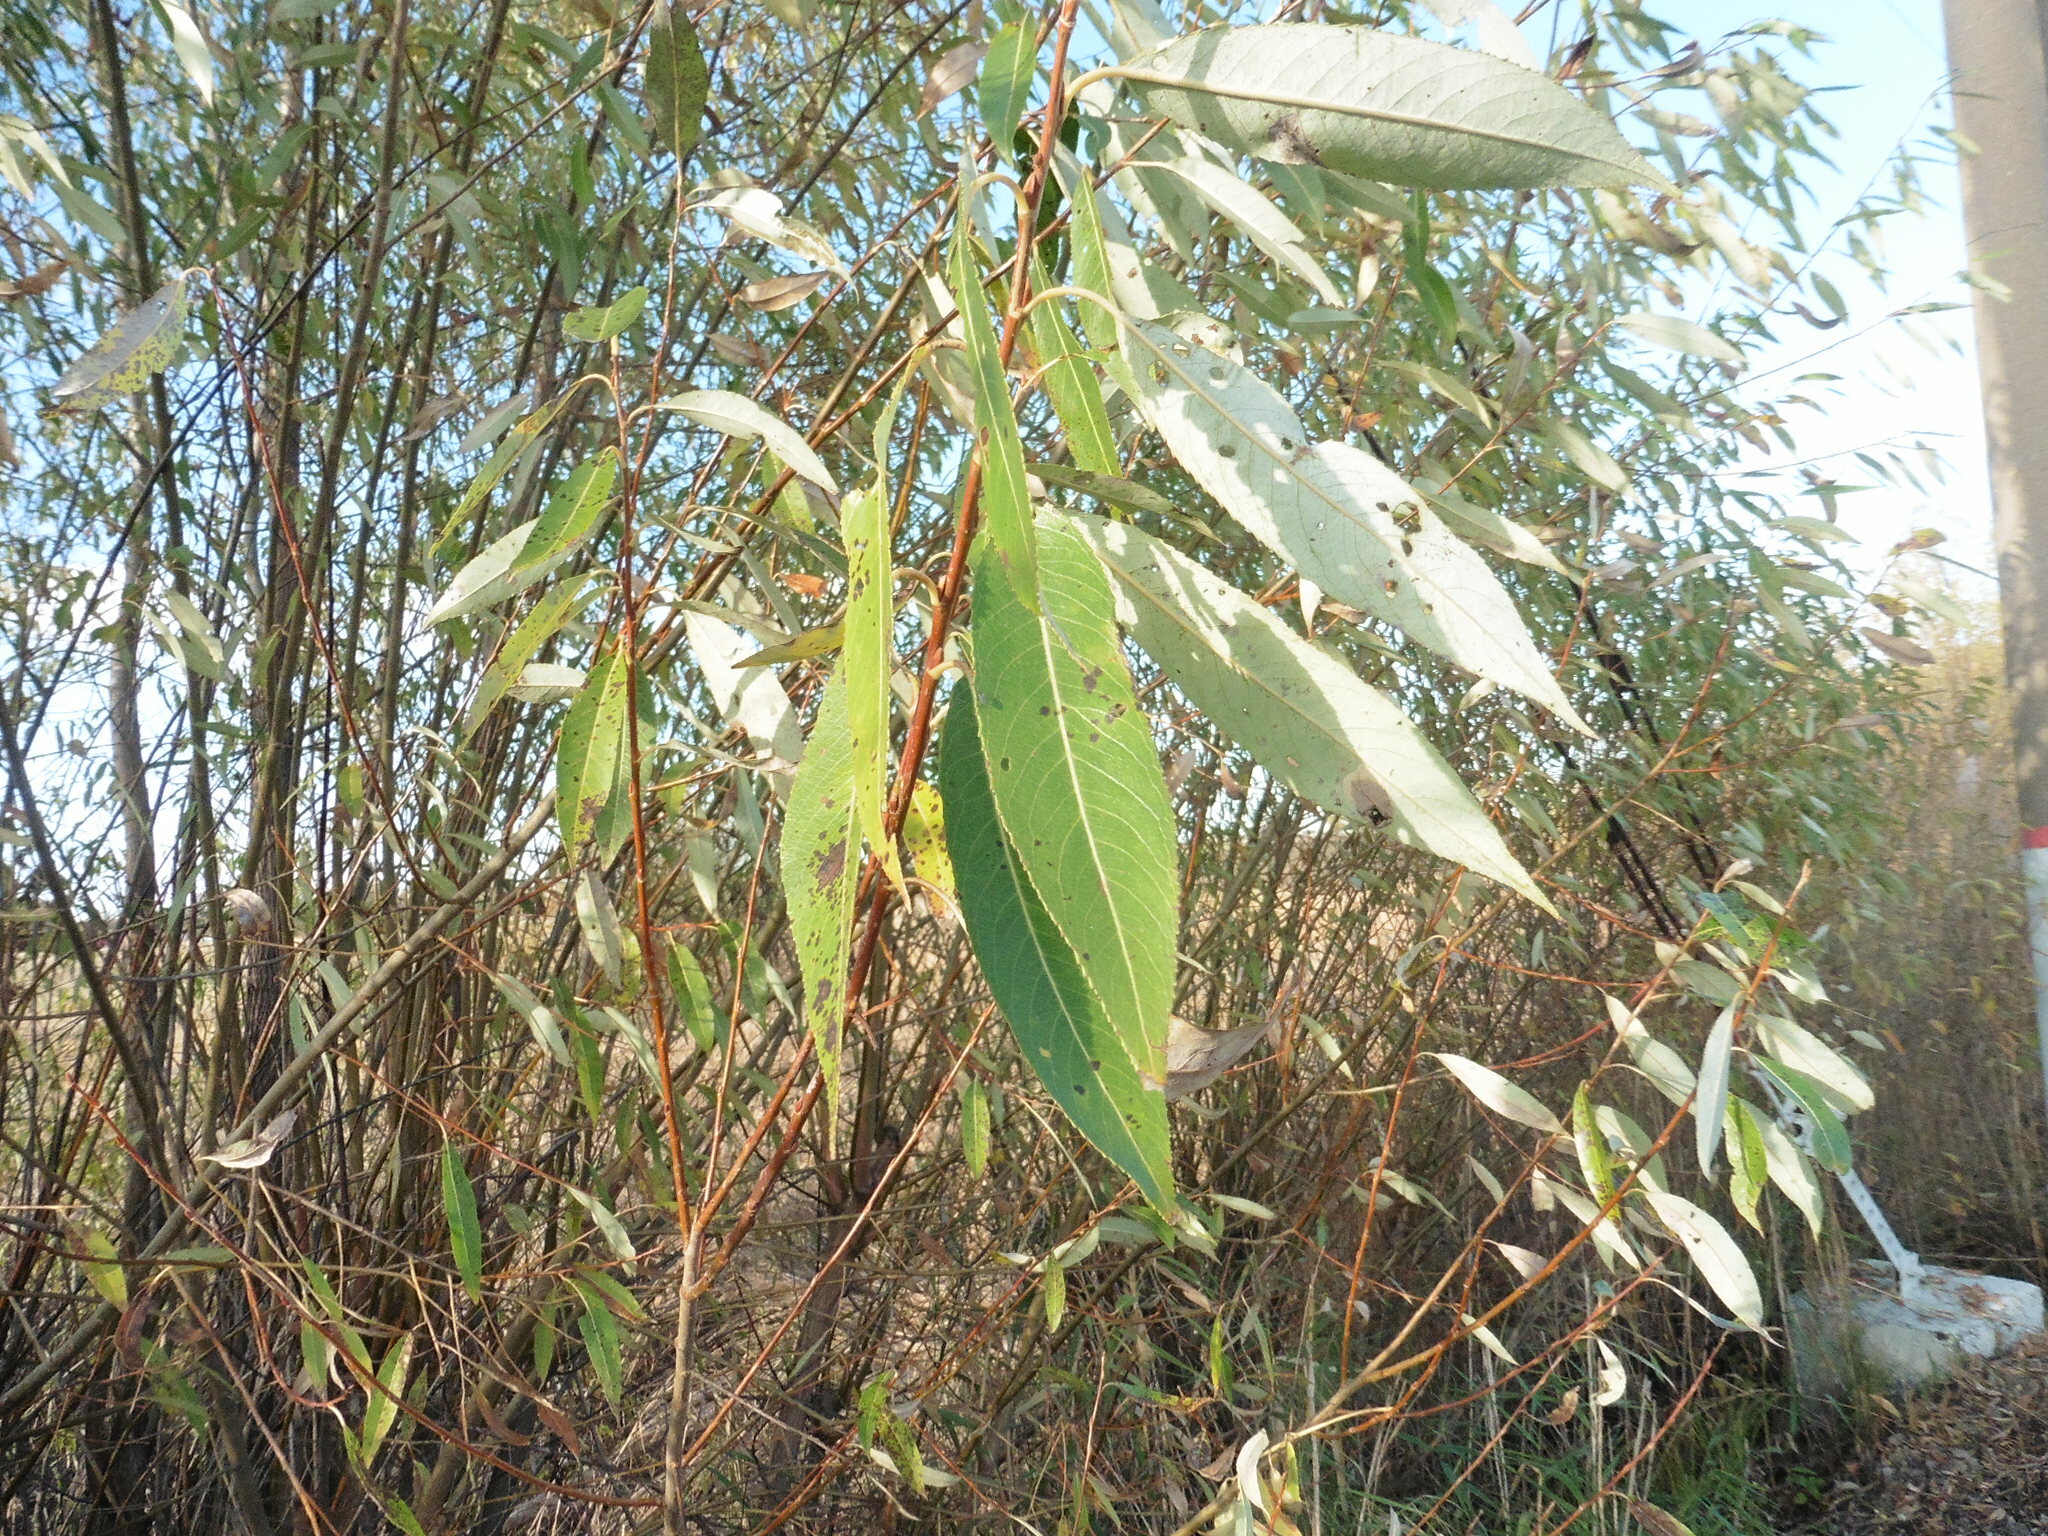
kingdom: Plantae
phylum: Tracheophyta
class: Magnoliopsida
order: Malpighiales
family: Salicaceae
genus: Salix
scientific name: Salix triandra
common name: Almond willow
